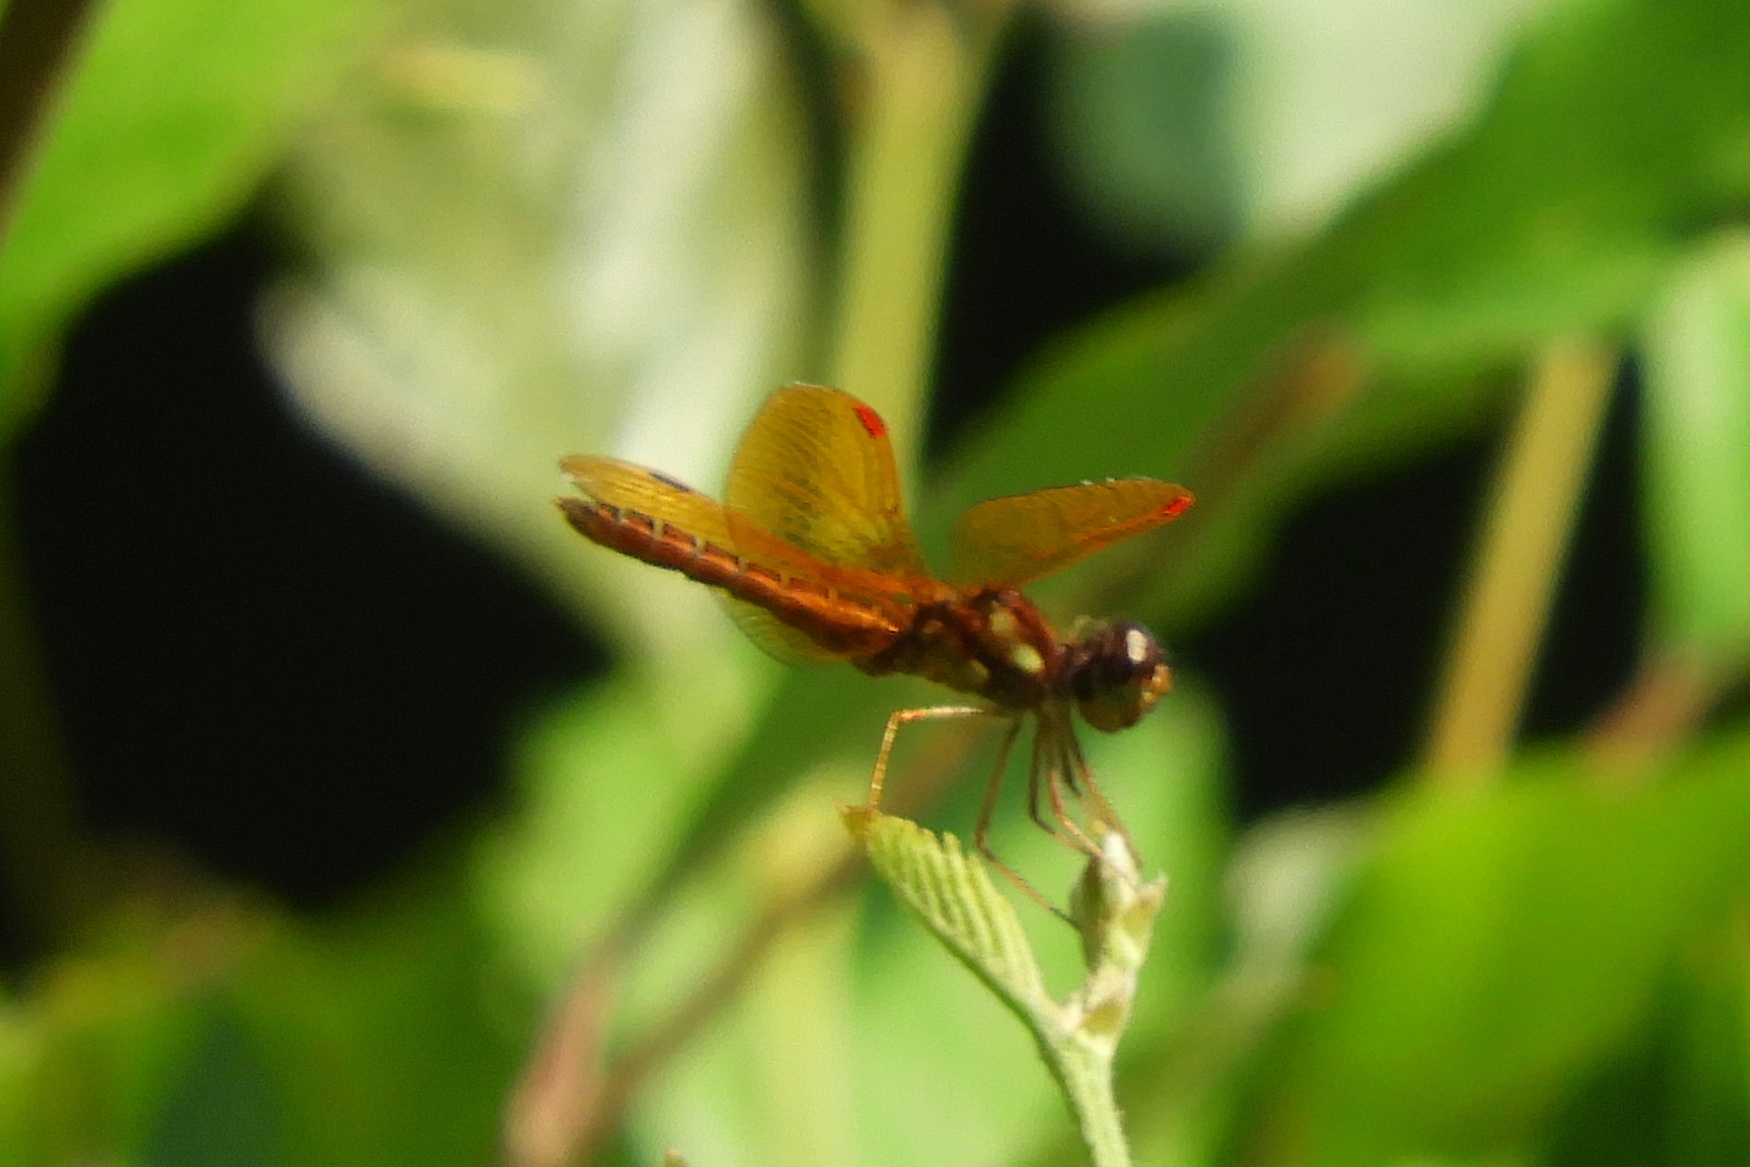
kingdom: Animalia
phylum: Arthropoda
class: Insecta
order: Odonata
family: Libellulidae
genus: Perithemis
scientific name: Perithemis tenera
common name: Eastern amberwing
